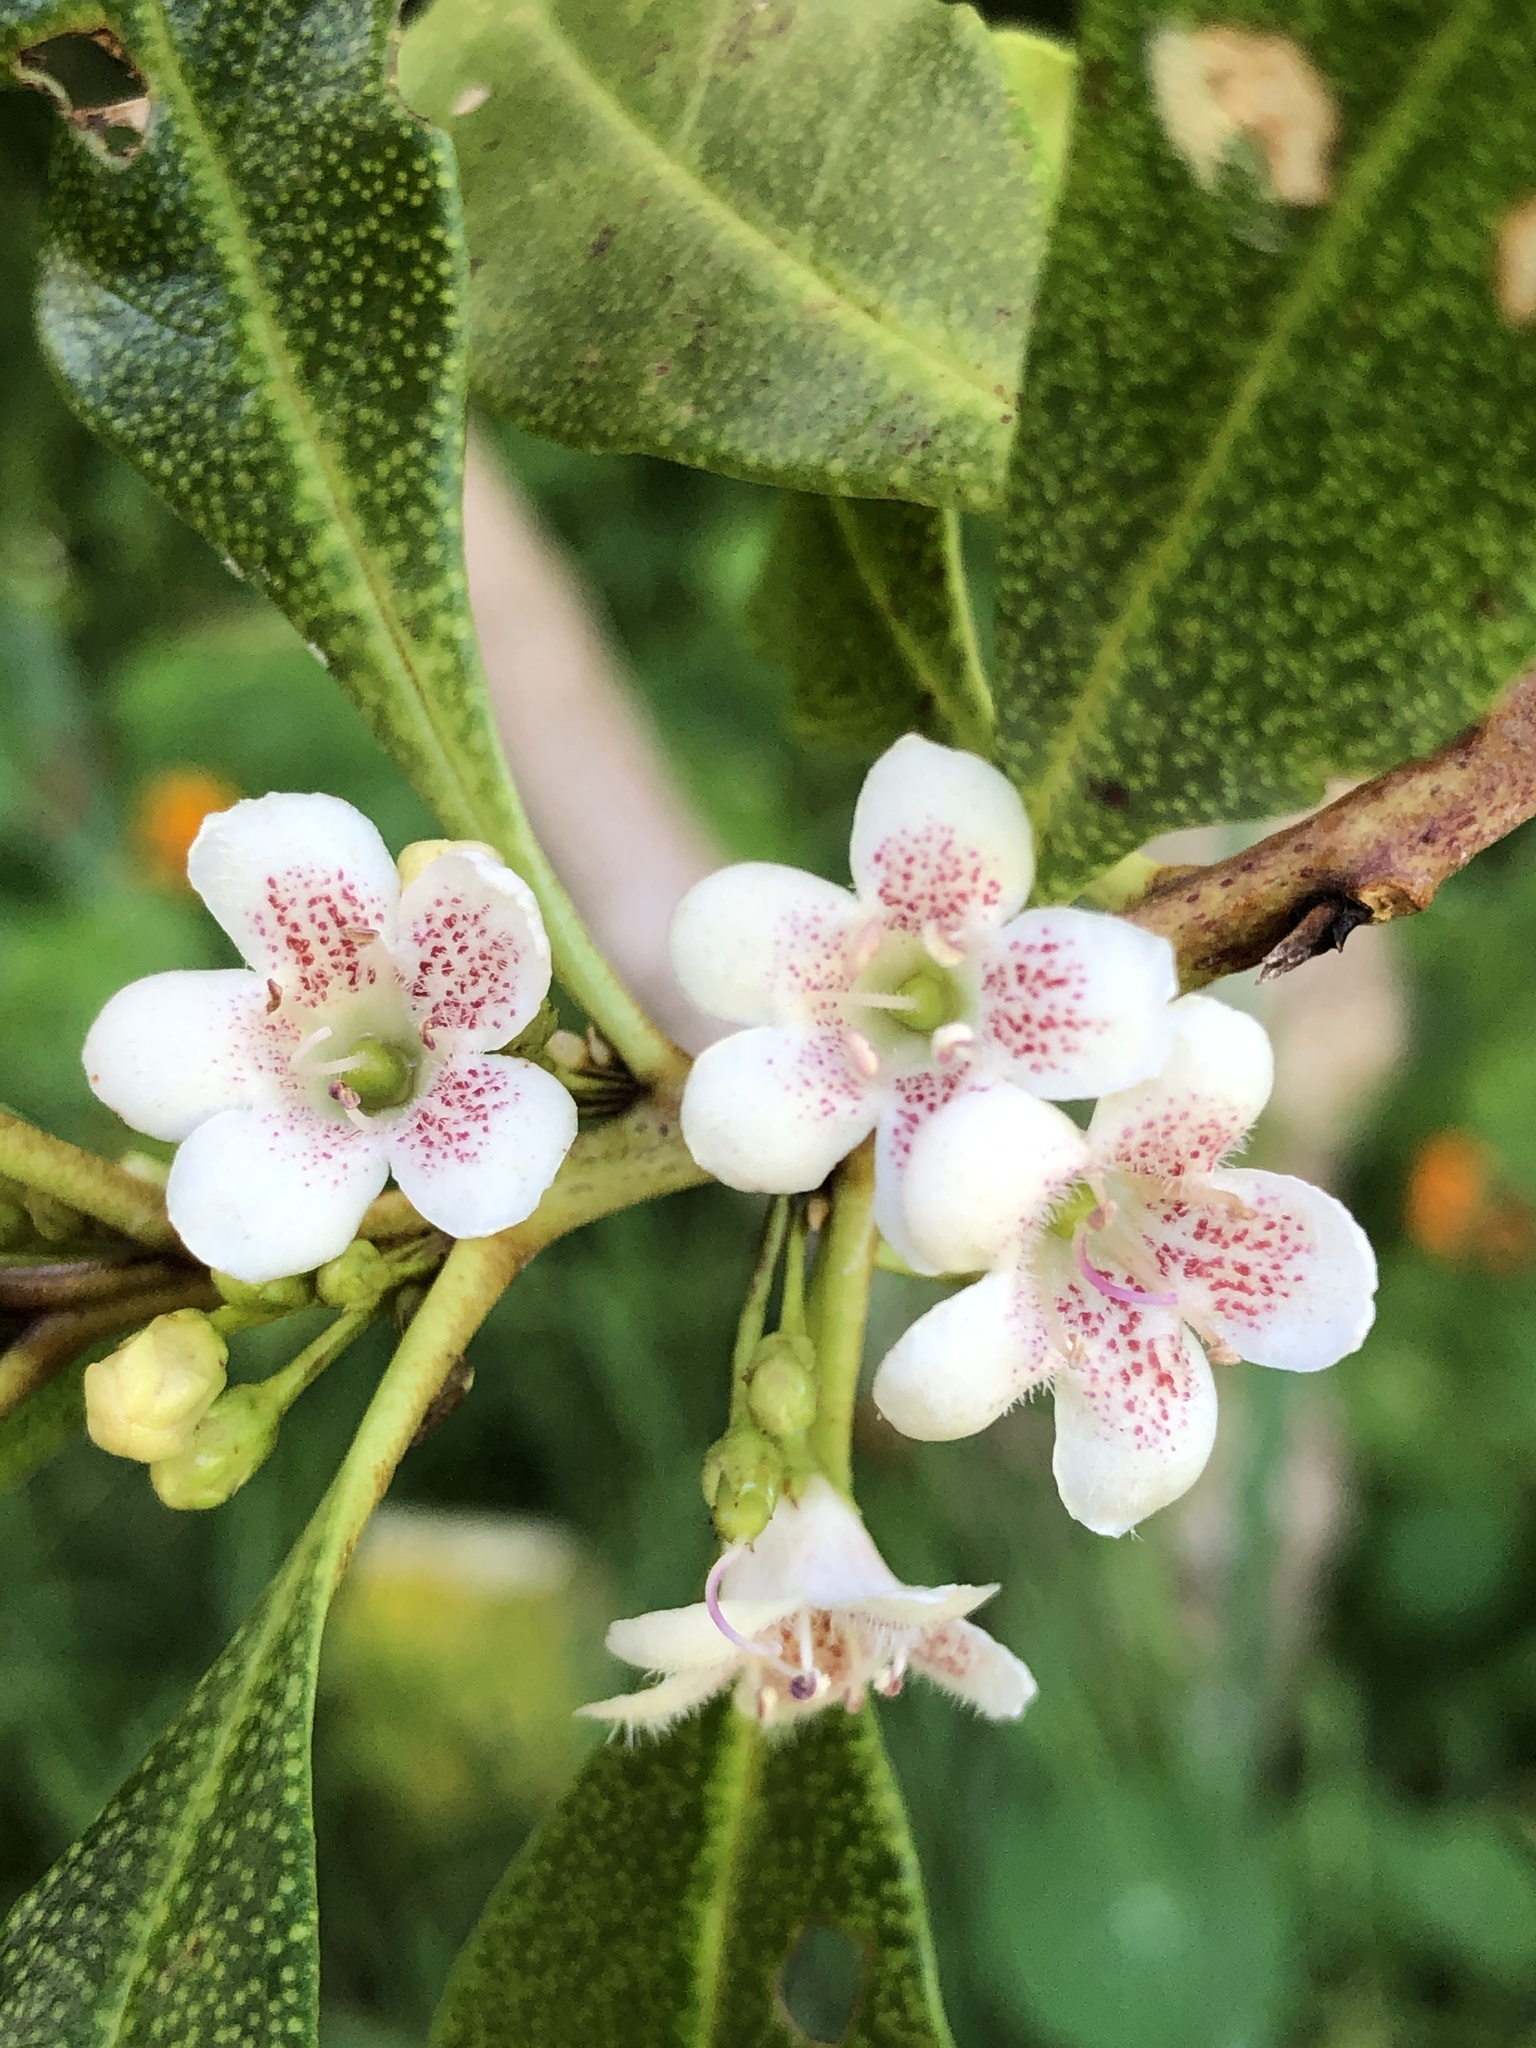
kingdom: Plantae
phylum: Tracheophyta
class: Magnoliopsida
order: Lamiales
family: Scrophulariaceae
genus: Myoporum
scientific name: Myoporum laetum
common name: Ngaio tree
